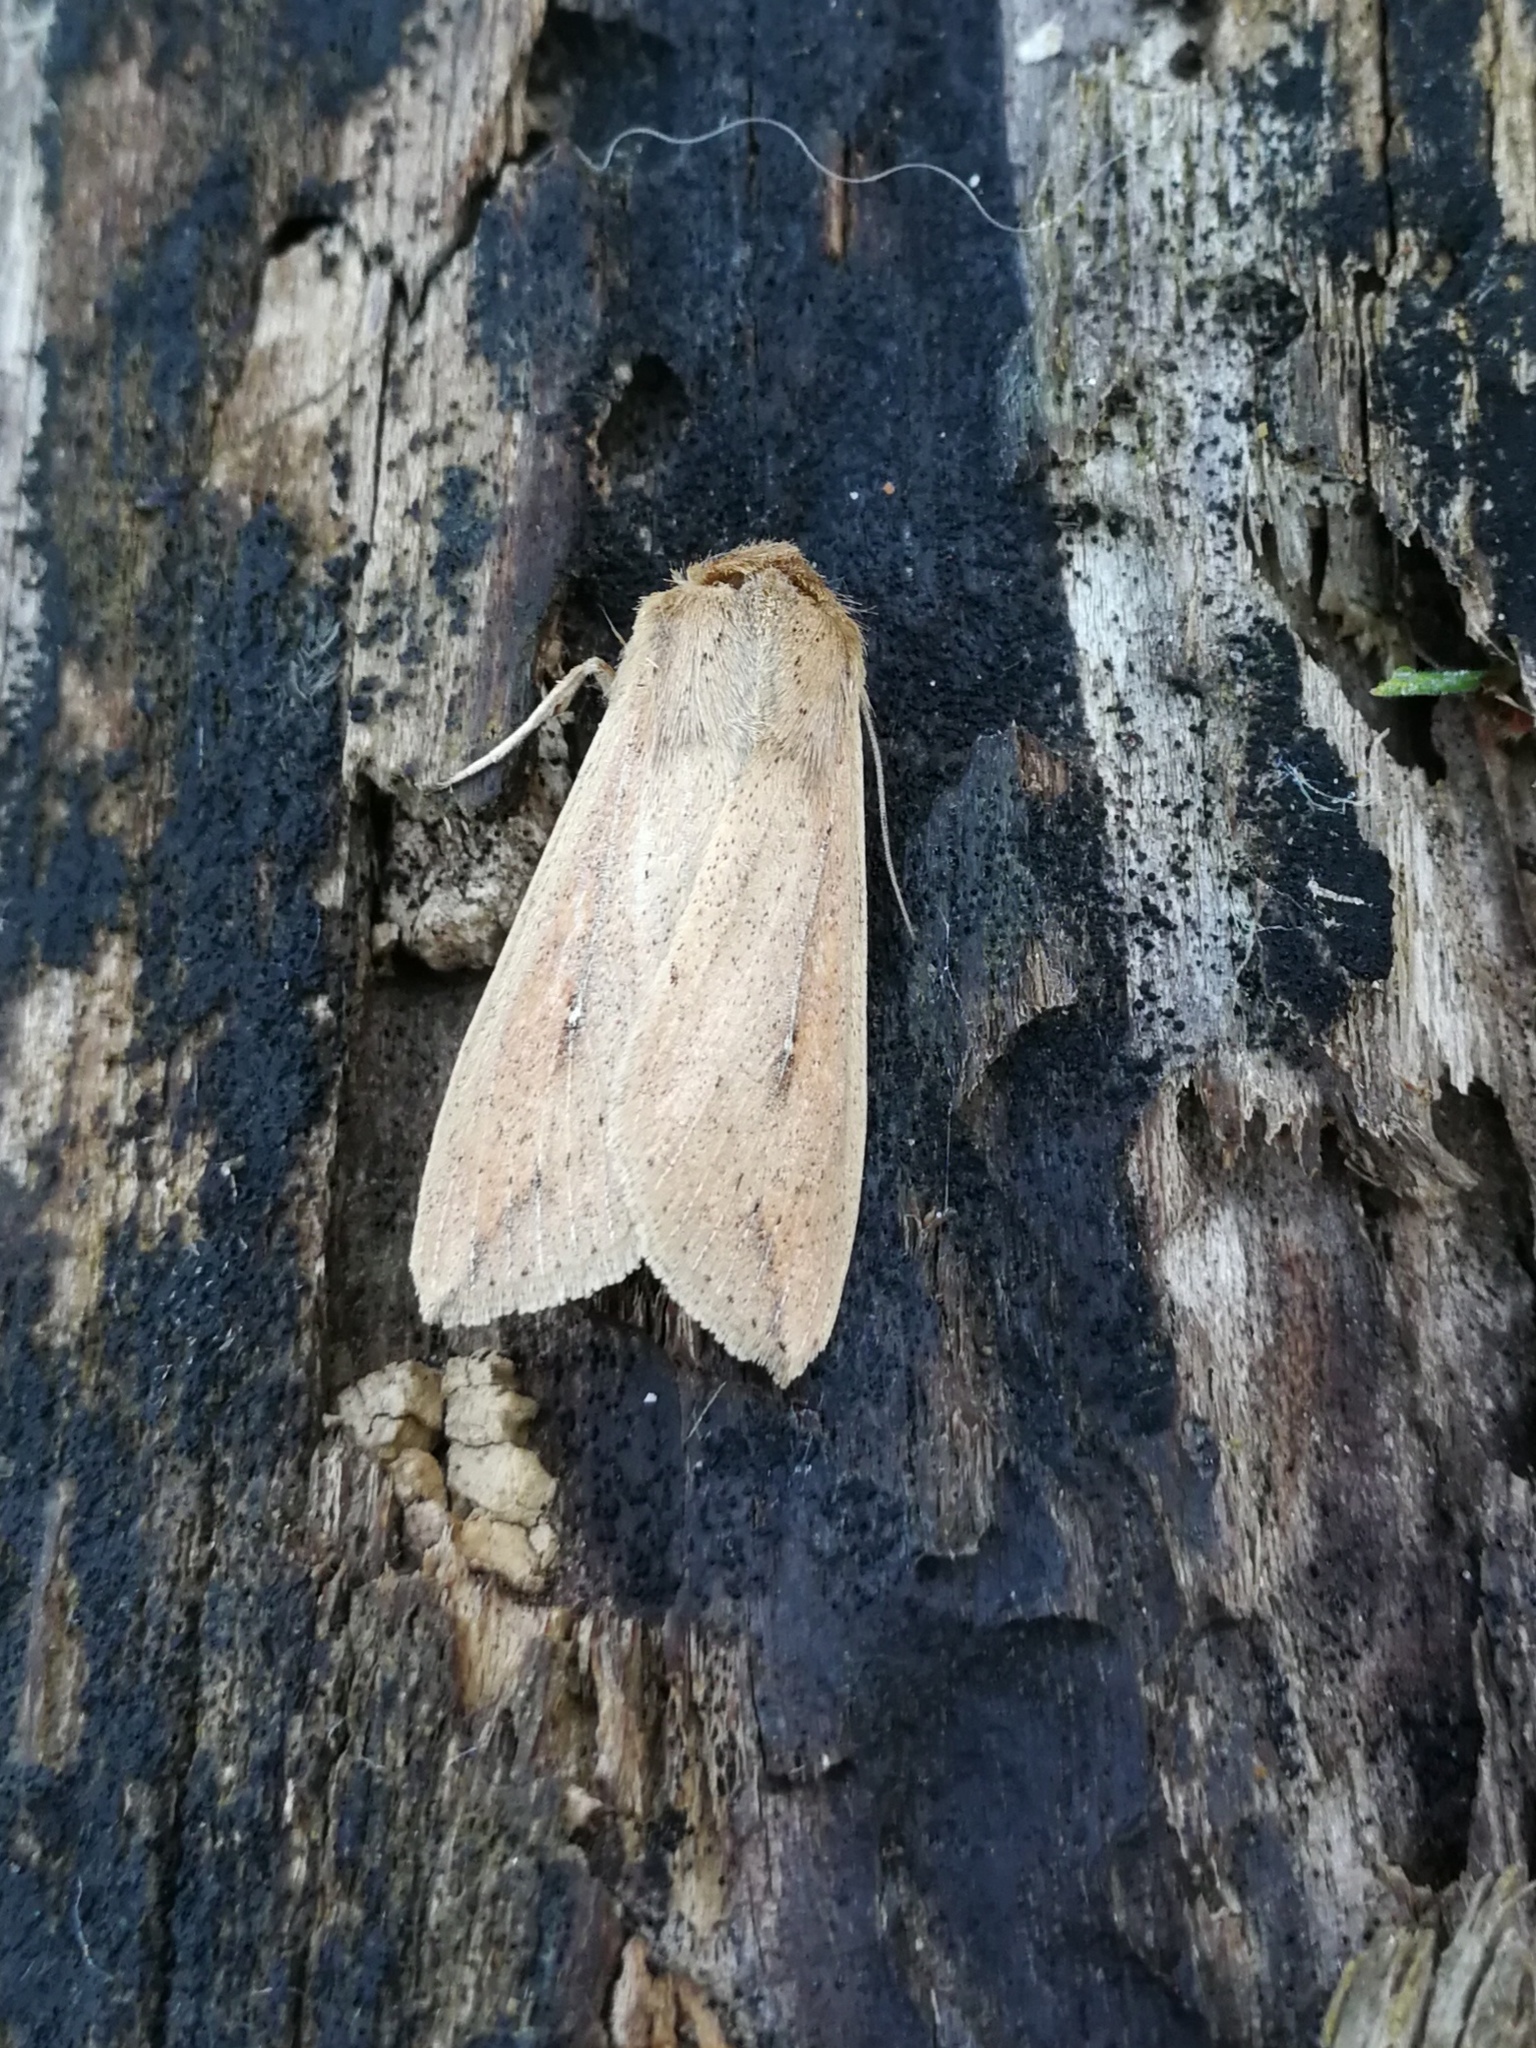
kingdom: Animalia
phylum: Arthropoda
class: Insecta
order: Lepidoptera
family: Noctuidae
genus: Mythimna
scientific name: Mythimna unipuncta
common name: White-speck
